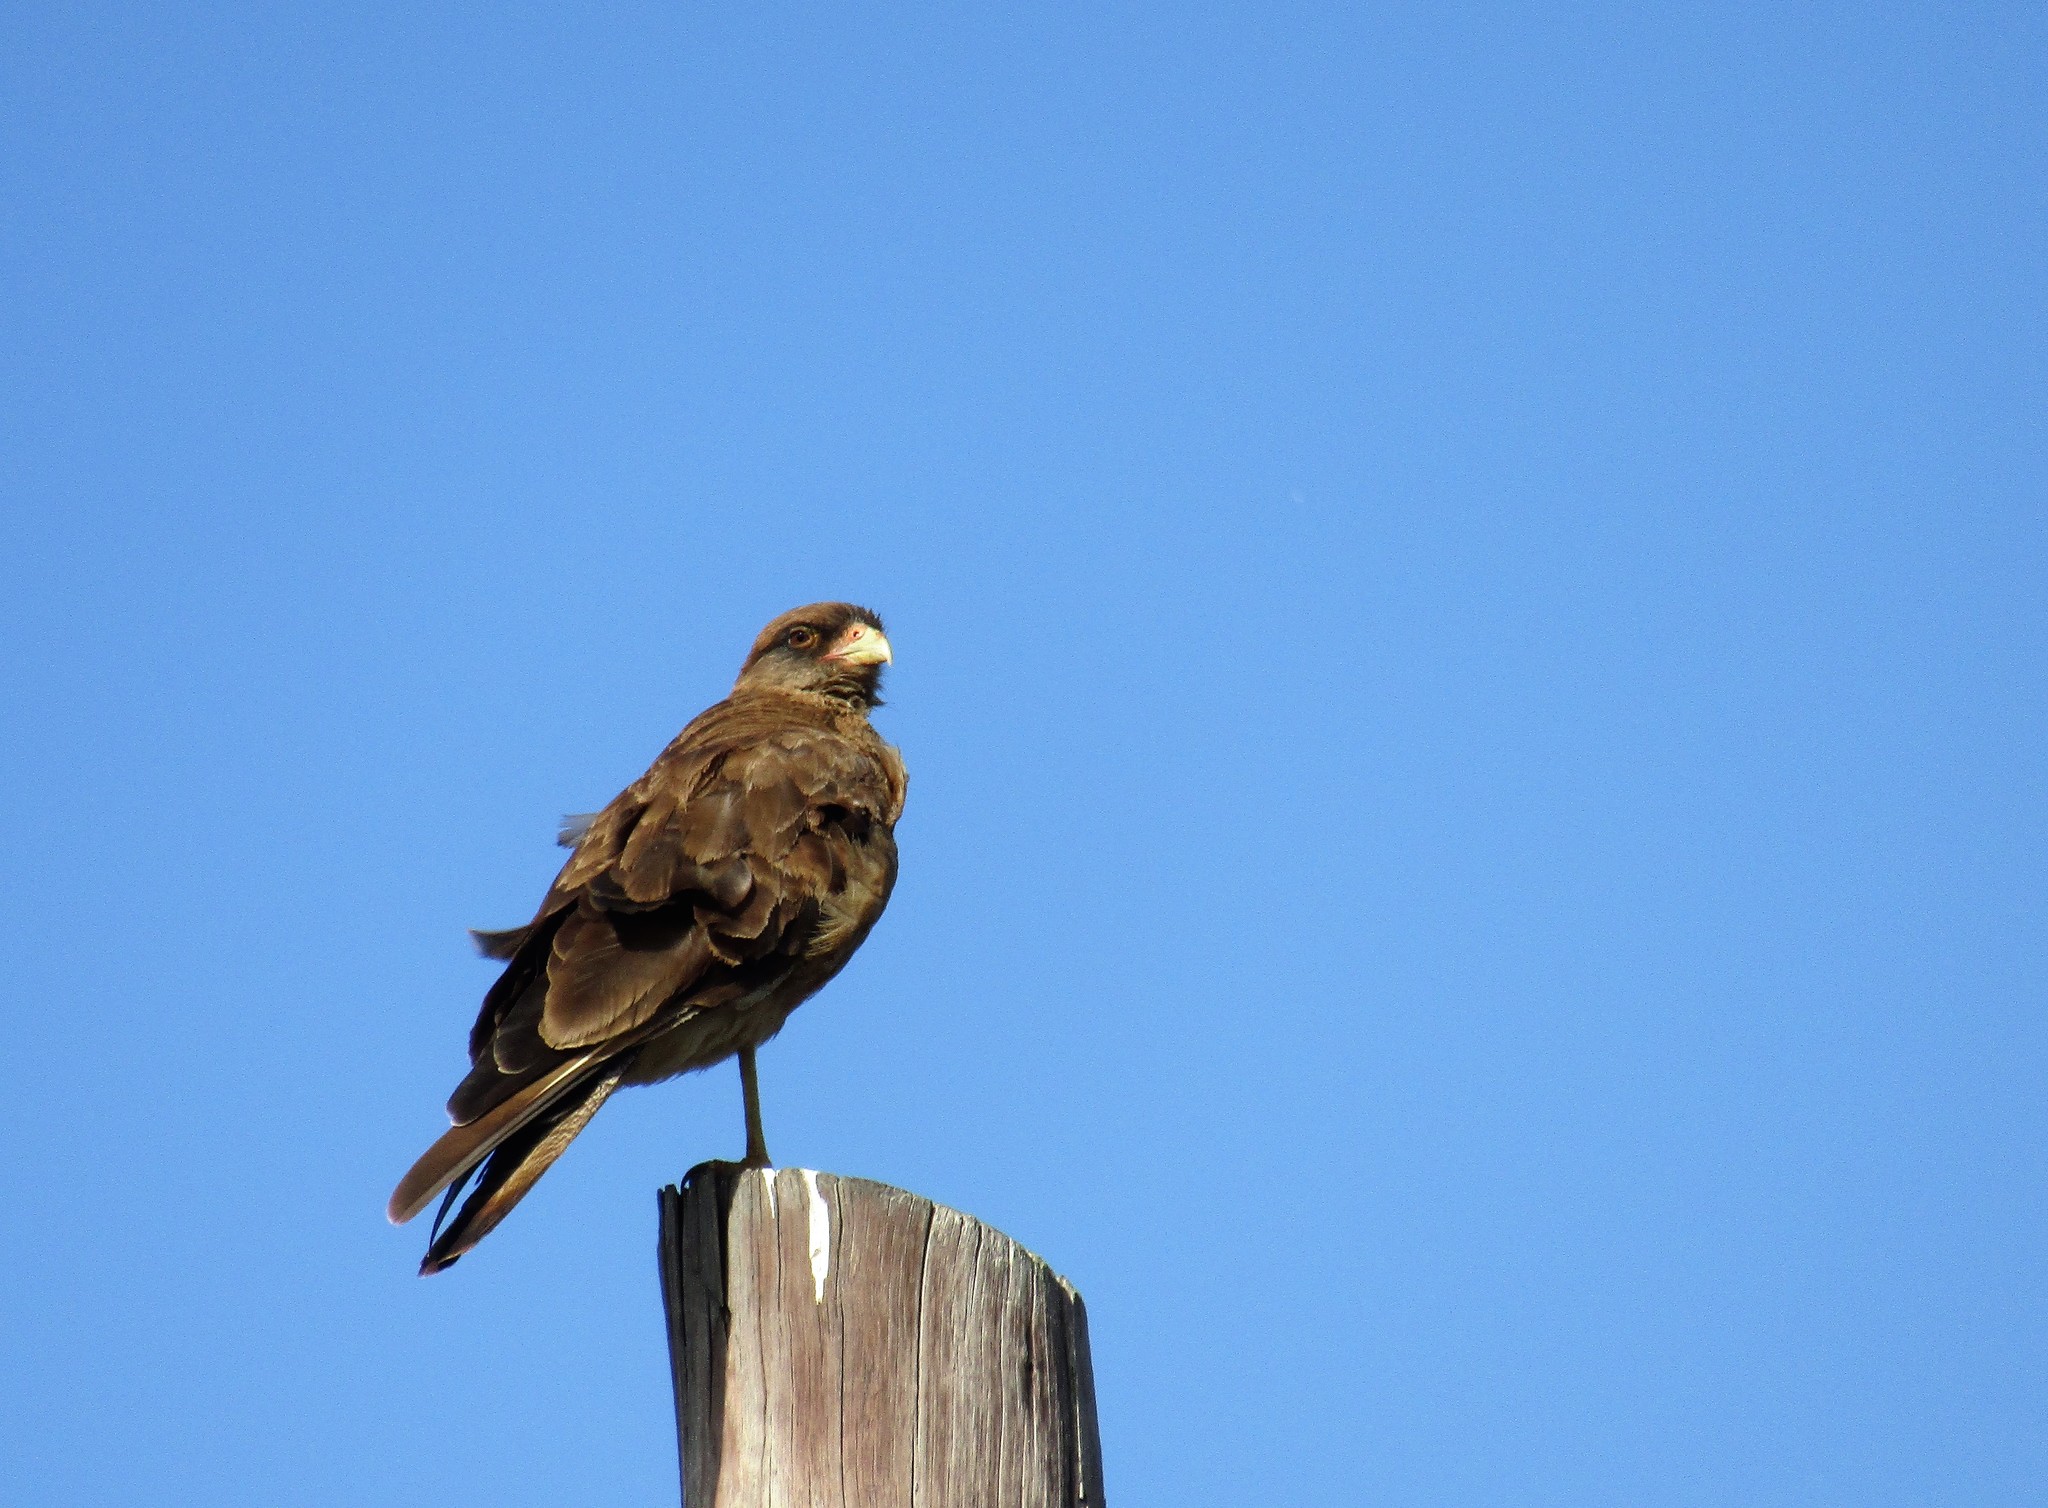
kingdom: Animalia
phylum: Chordata
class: Aves
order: Falconiformes
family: Falconidae
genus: Daptrius
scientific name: Daptrius
